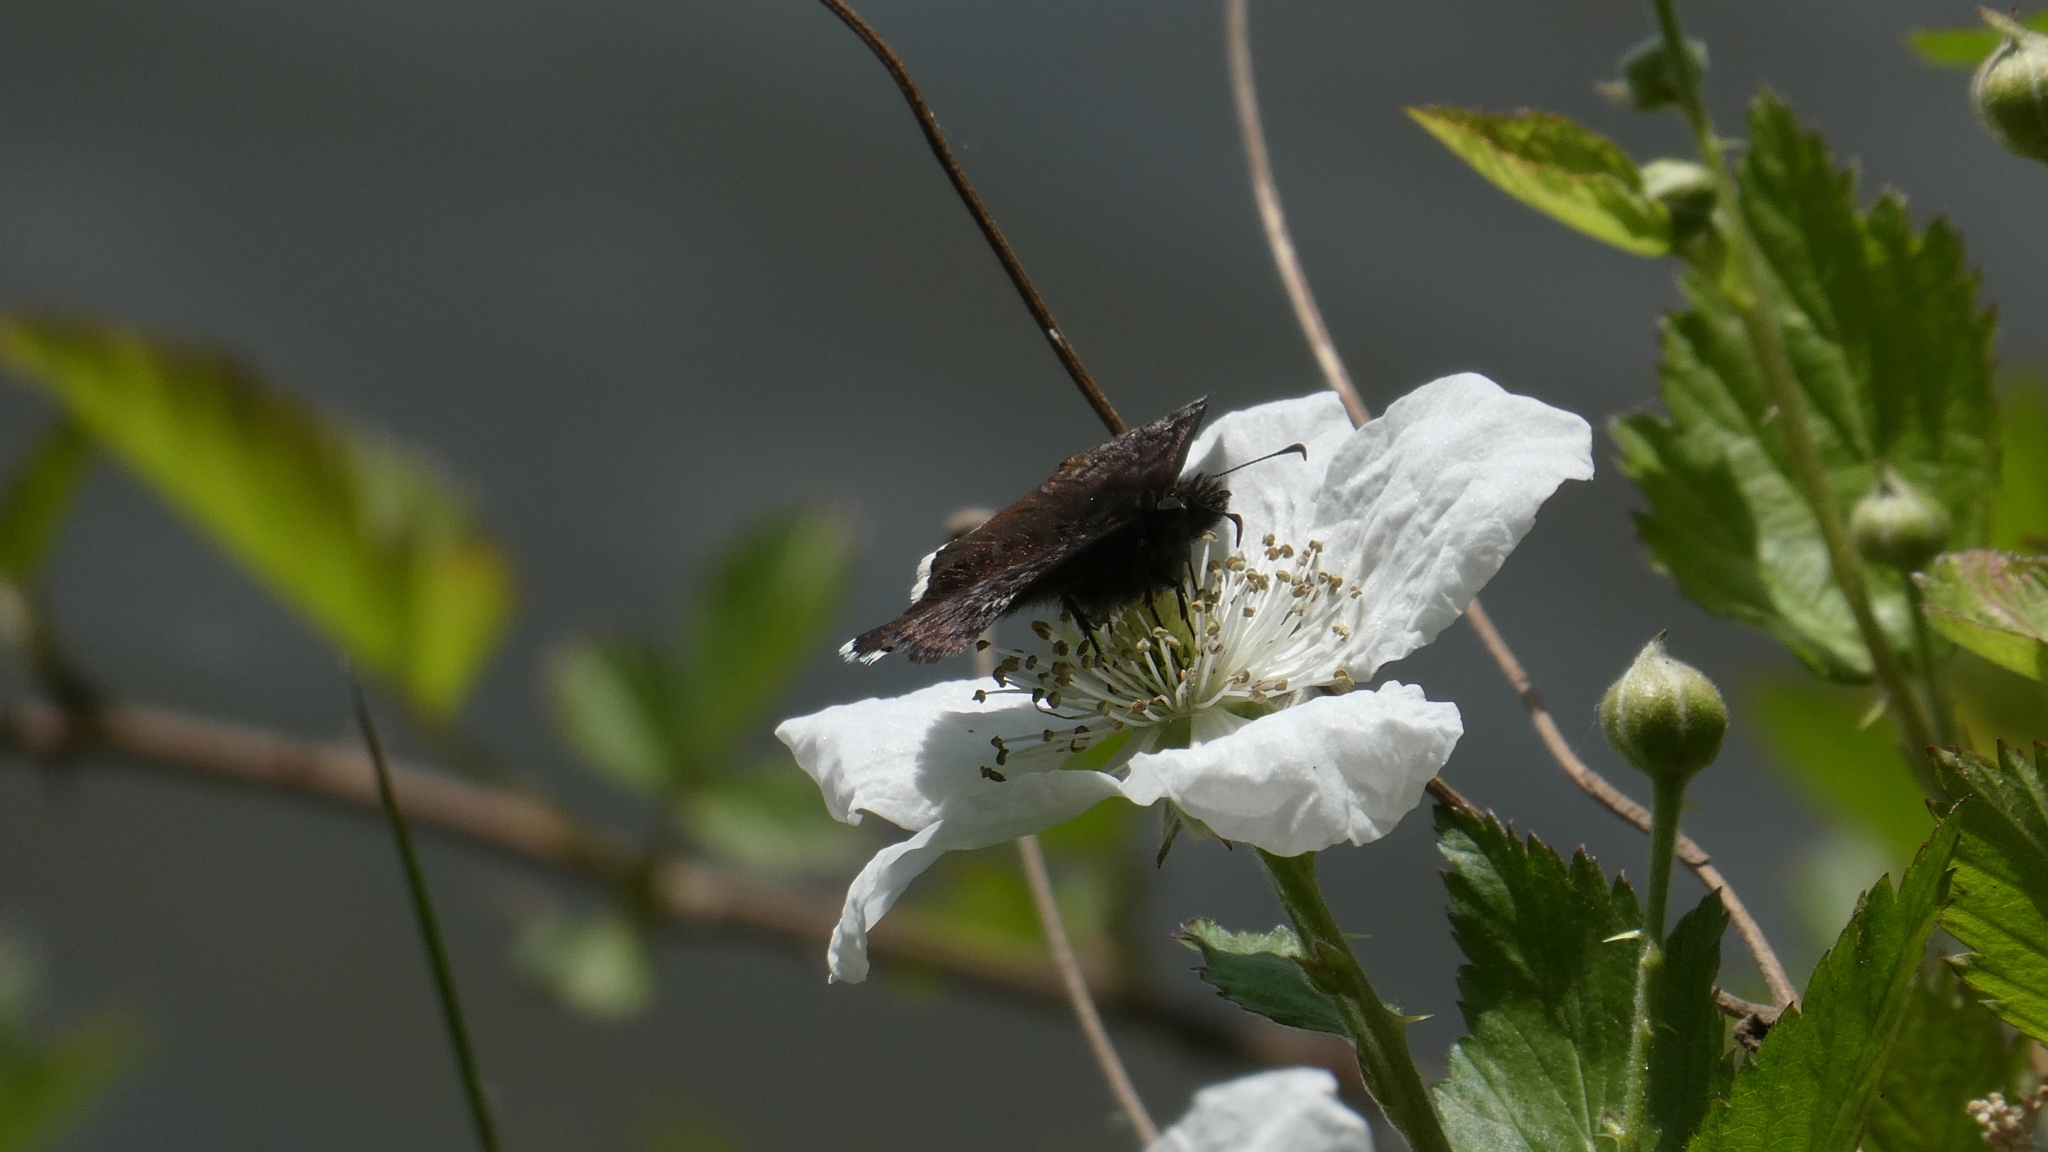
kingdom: Animalia
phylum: Arthropoda
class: Insecta
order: Lepidoptera
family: Hesperiidae
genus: Erynnis
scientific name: Erynnis funeralis
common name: Funereal duskywing
